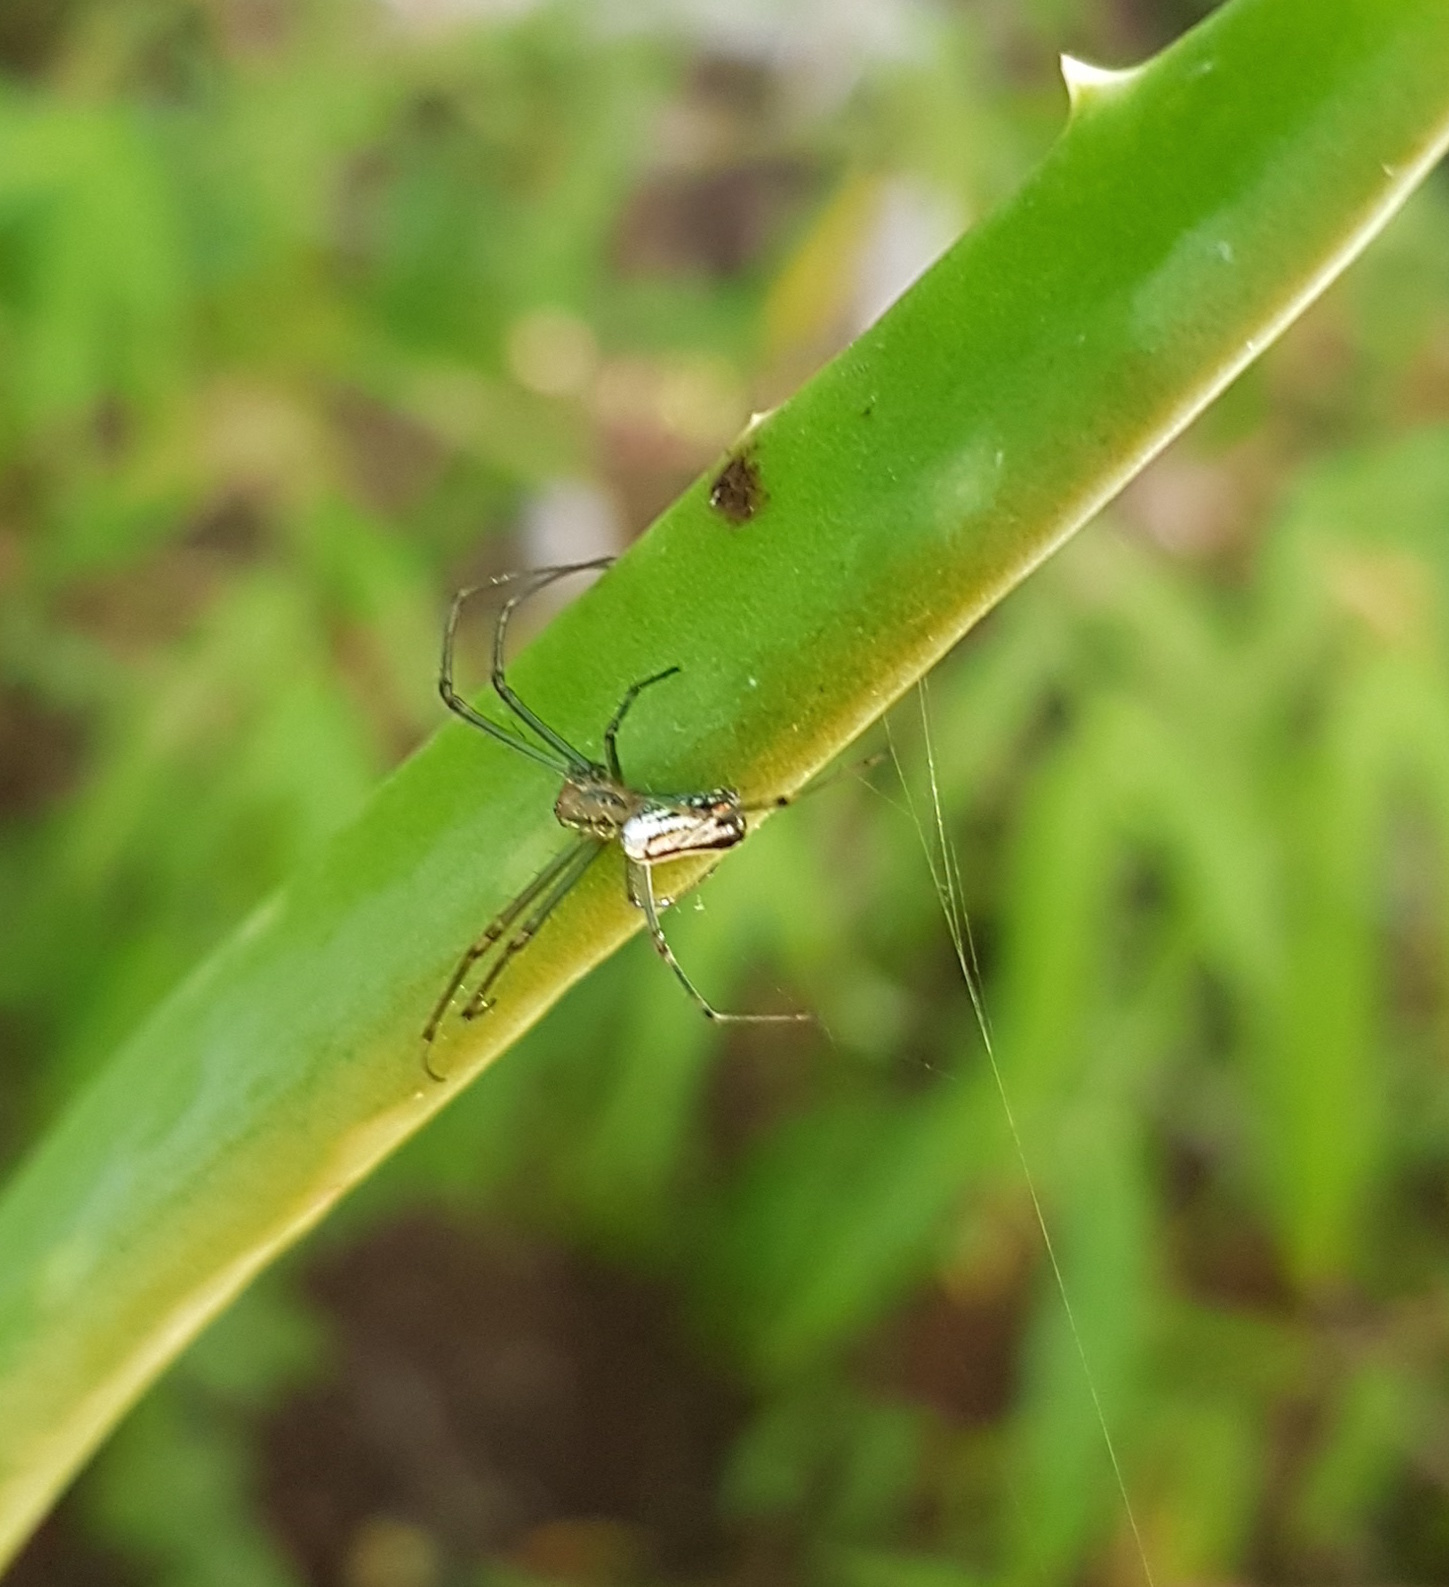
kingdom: Animalia
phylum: Arthropoda
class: Arachnida
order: Araneae
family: Tetragnathidae
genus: Leucauge
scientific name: Leucauge argyrobapta
